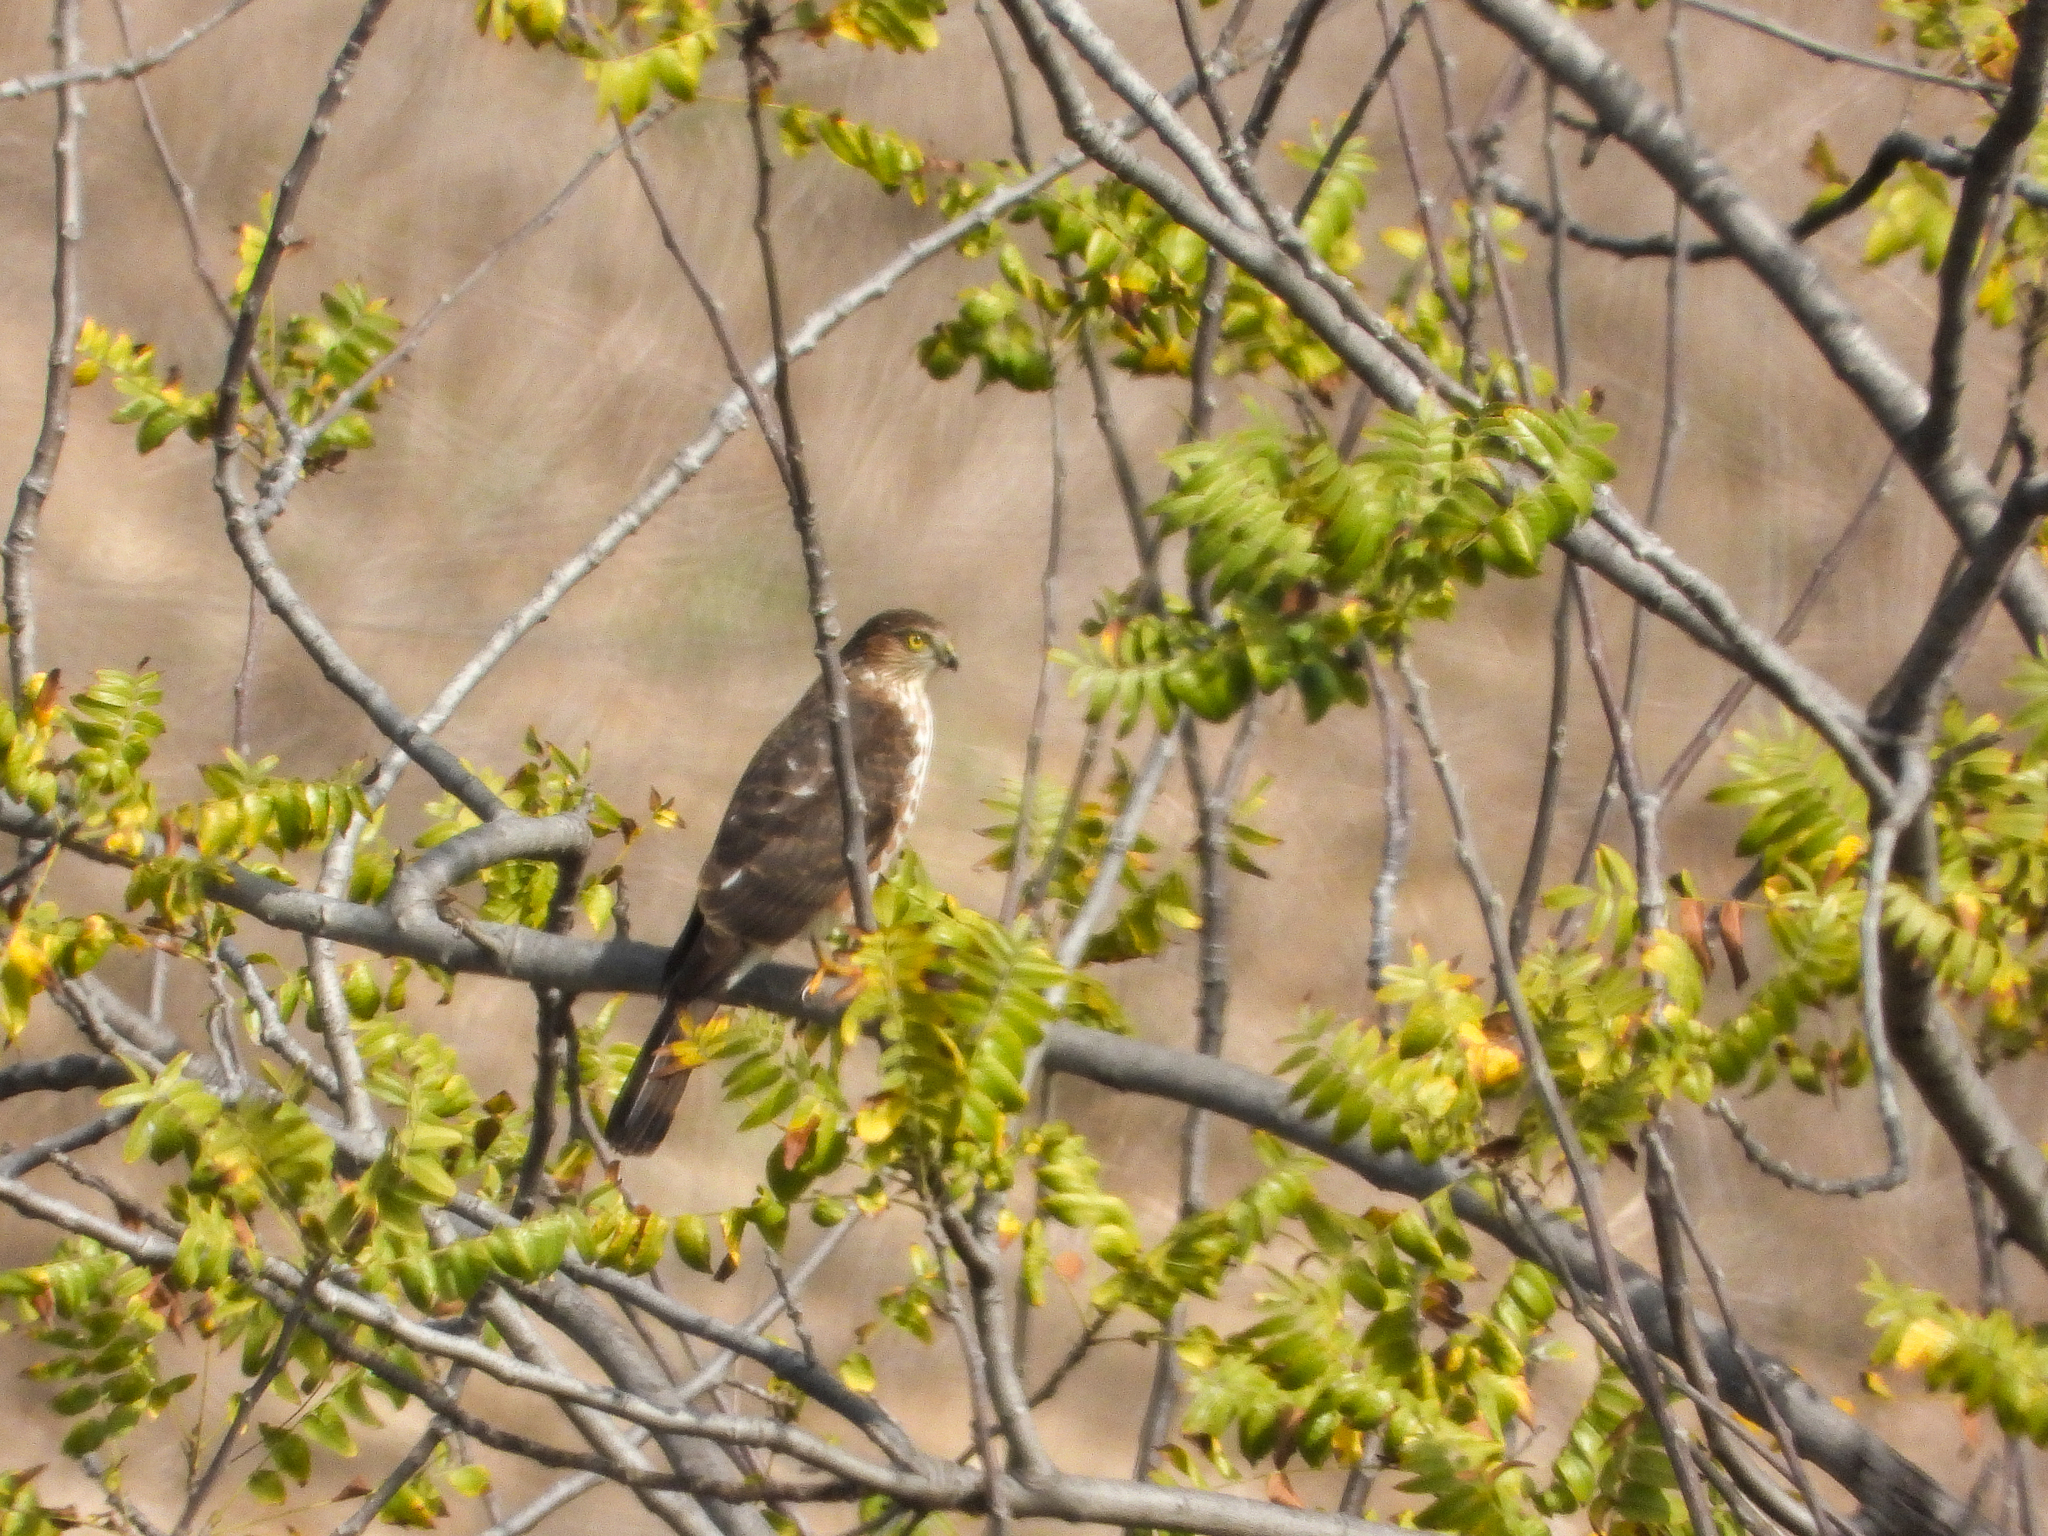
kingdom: Animalia
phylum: Chordata
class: Aves
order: Accipitriformes
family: Accipitridae
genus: Accipiter
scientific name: Accipiter striatus
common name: Sharp-shinned hawk
